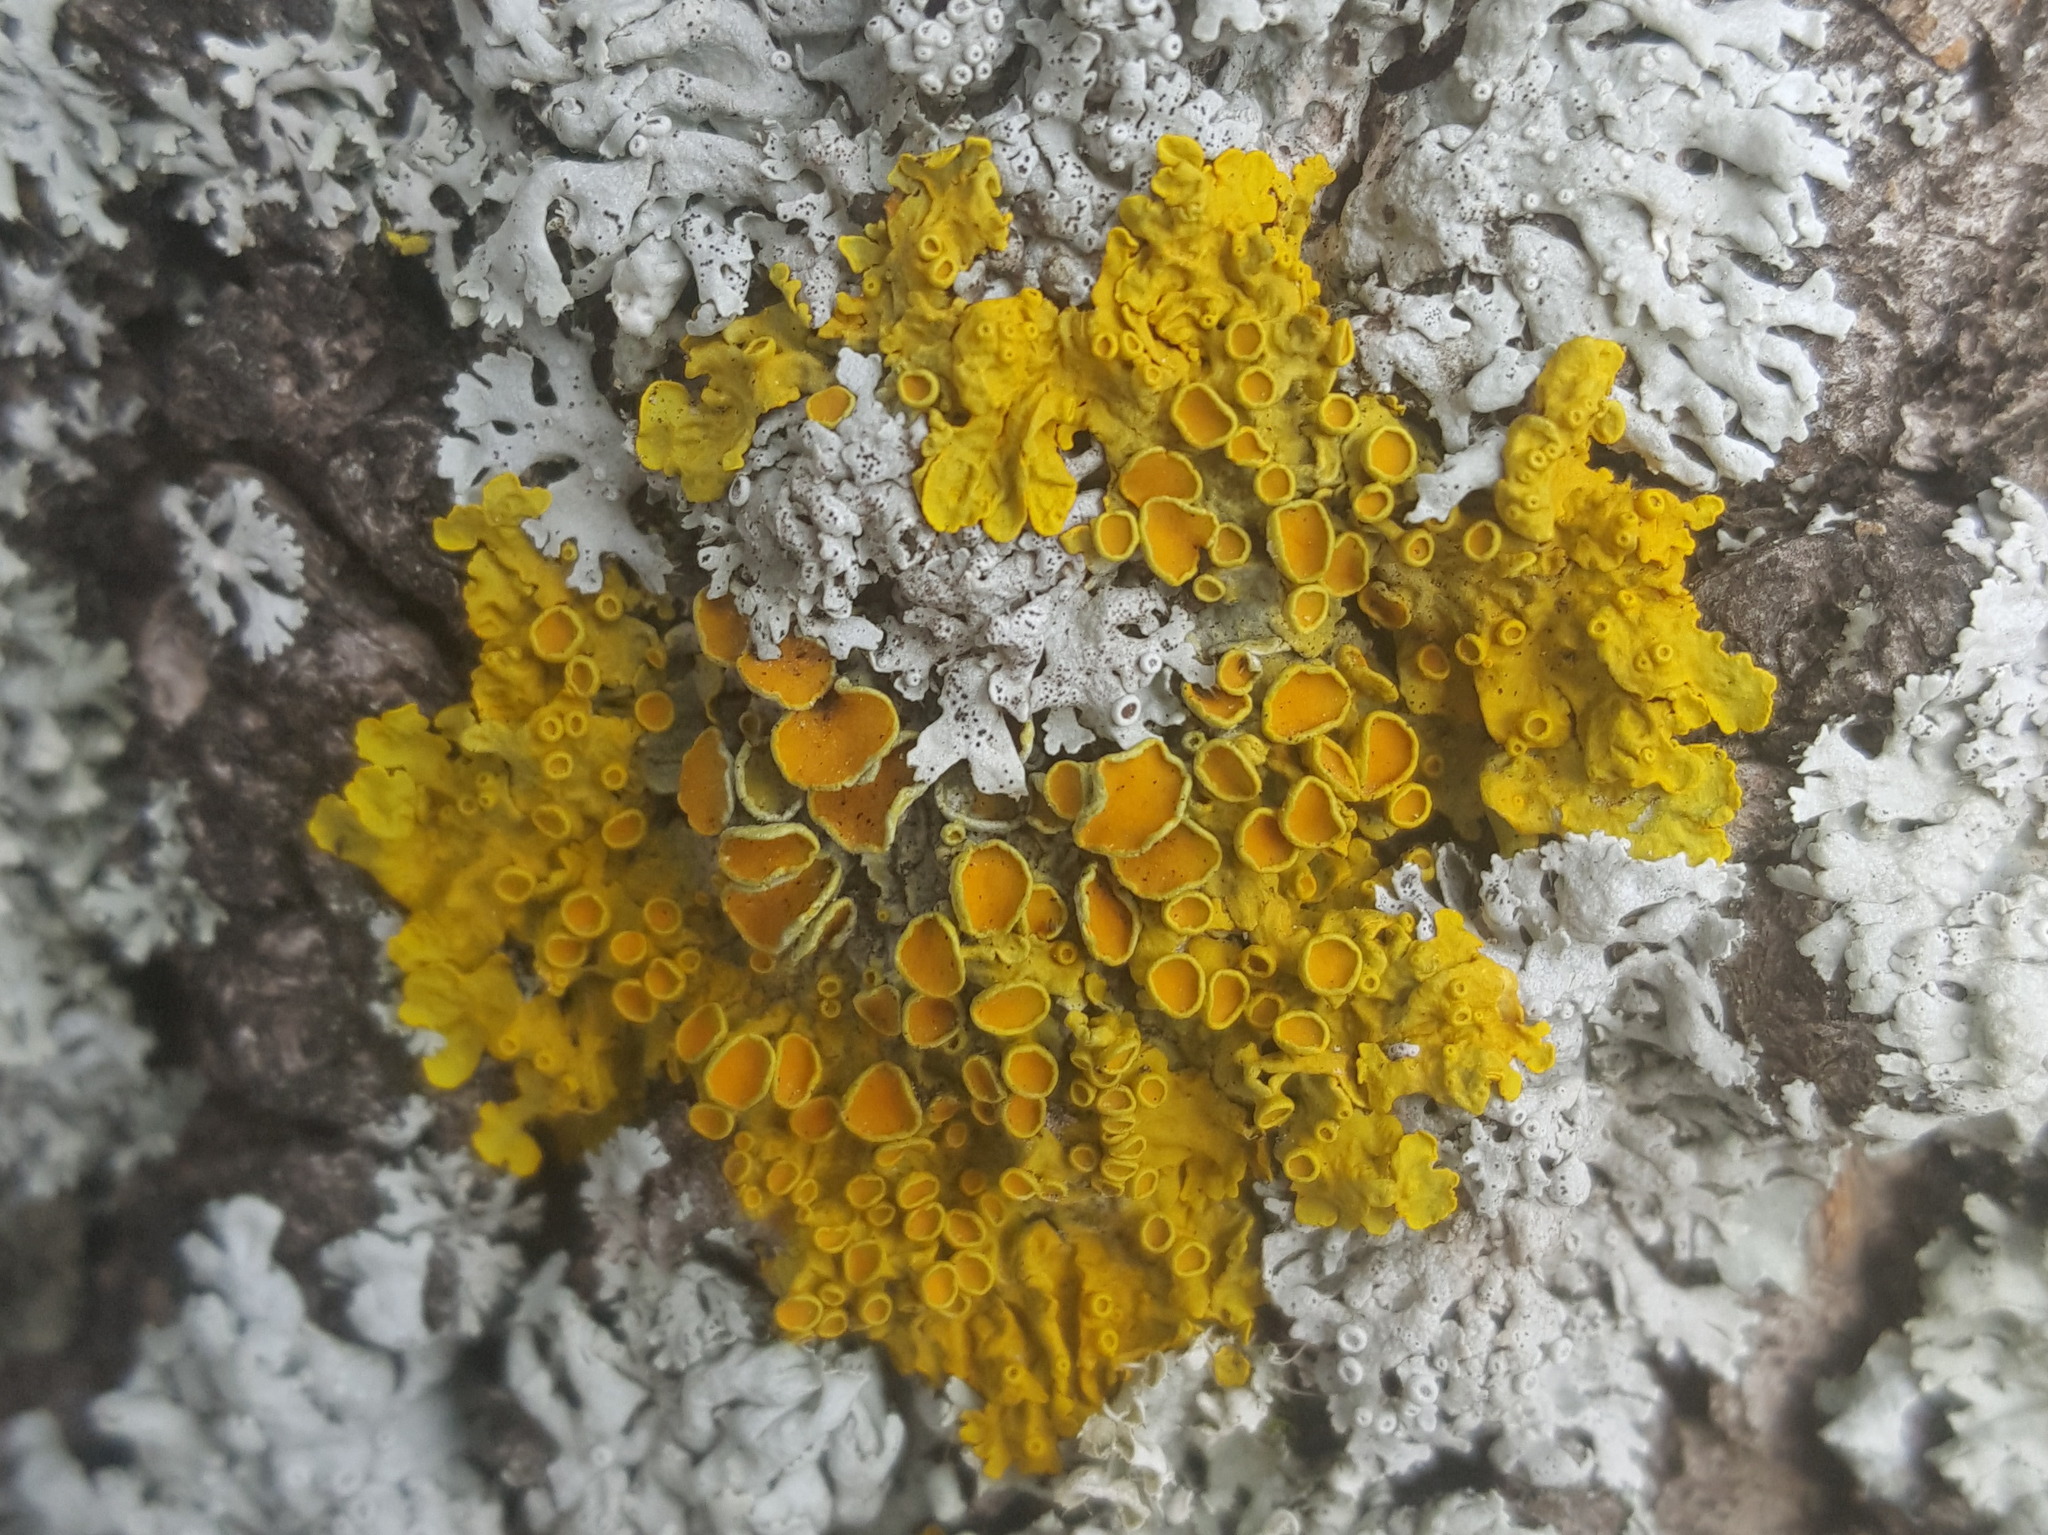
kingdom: Fungi
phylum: Ascomycota
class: Lecanoromycetes
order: Teloschistales
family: Teloschistaceae
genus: Xanthoria
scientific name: Xanthoria parietina
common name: Common orange lichen
